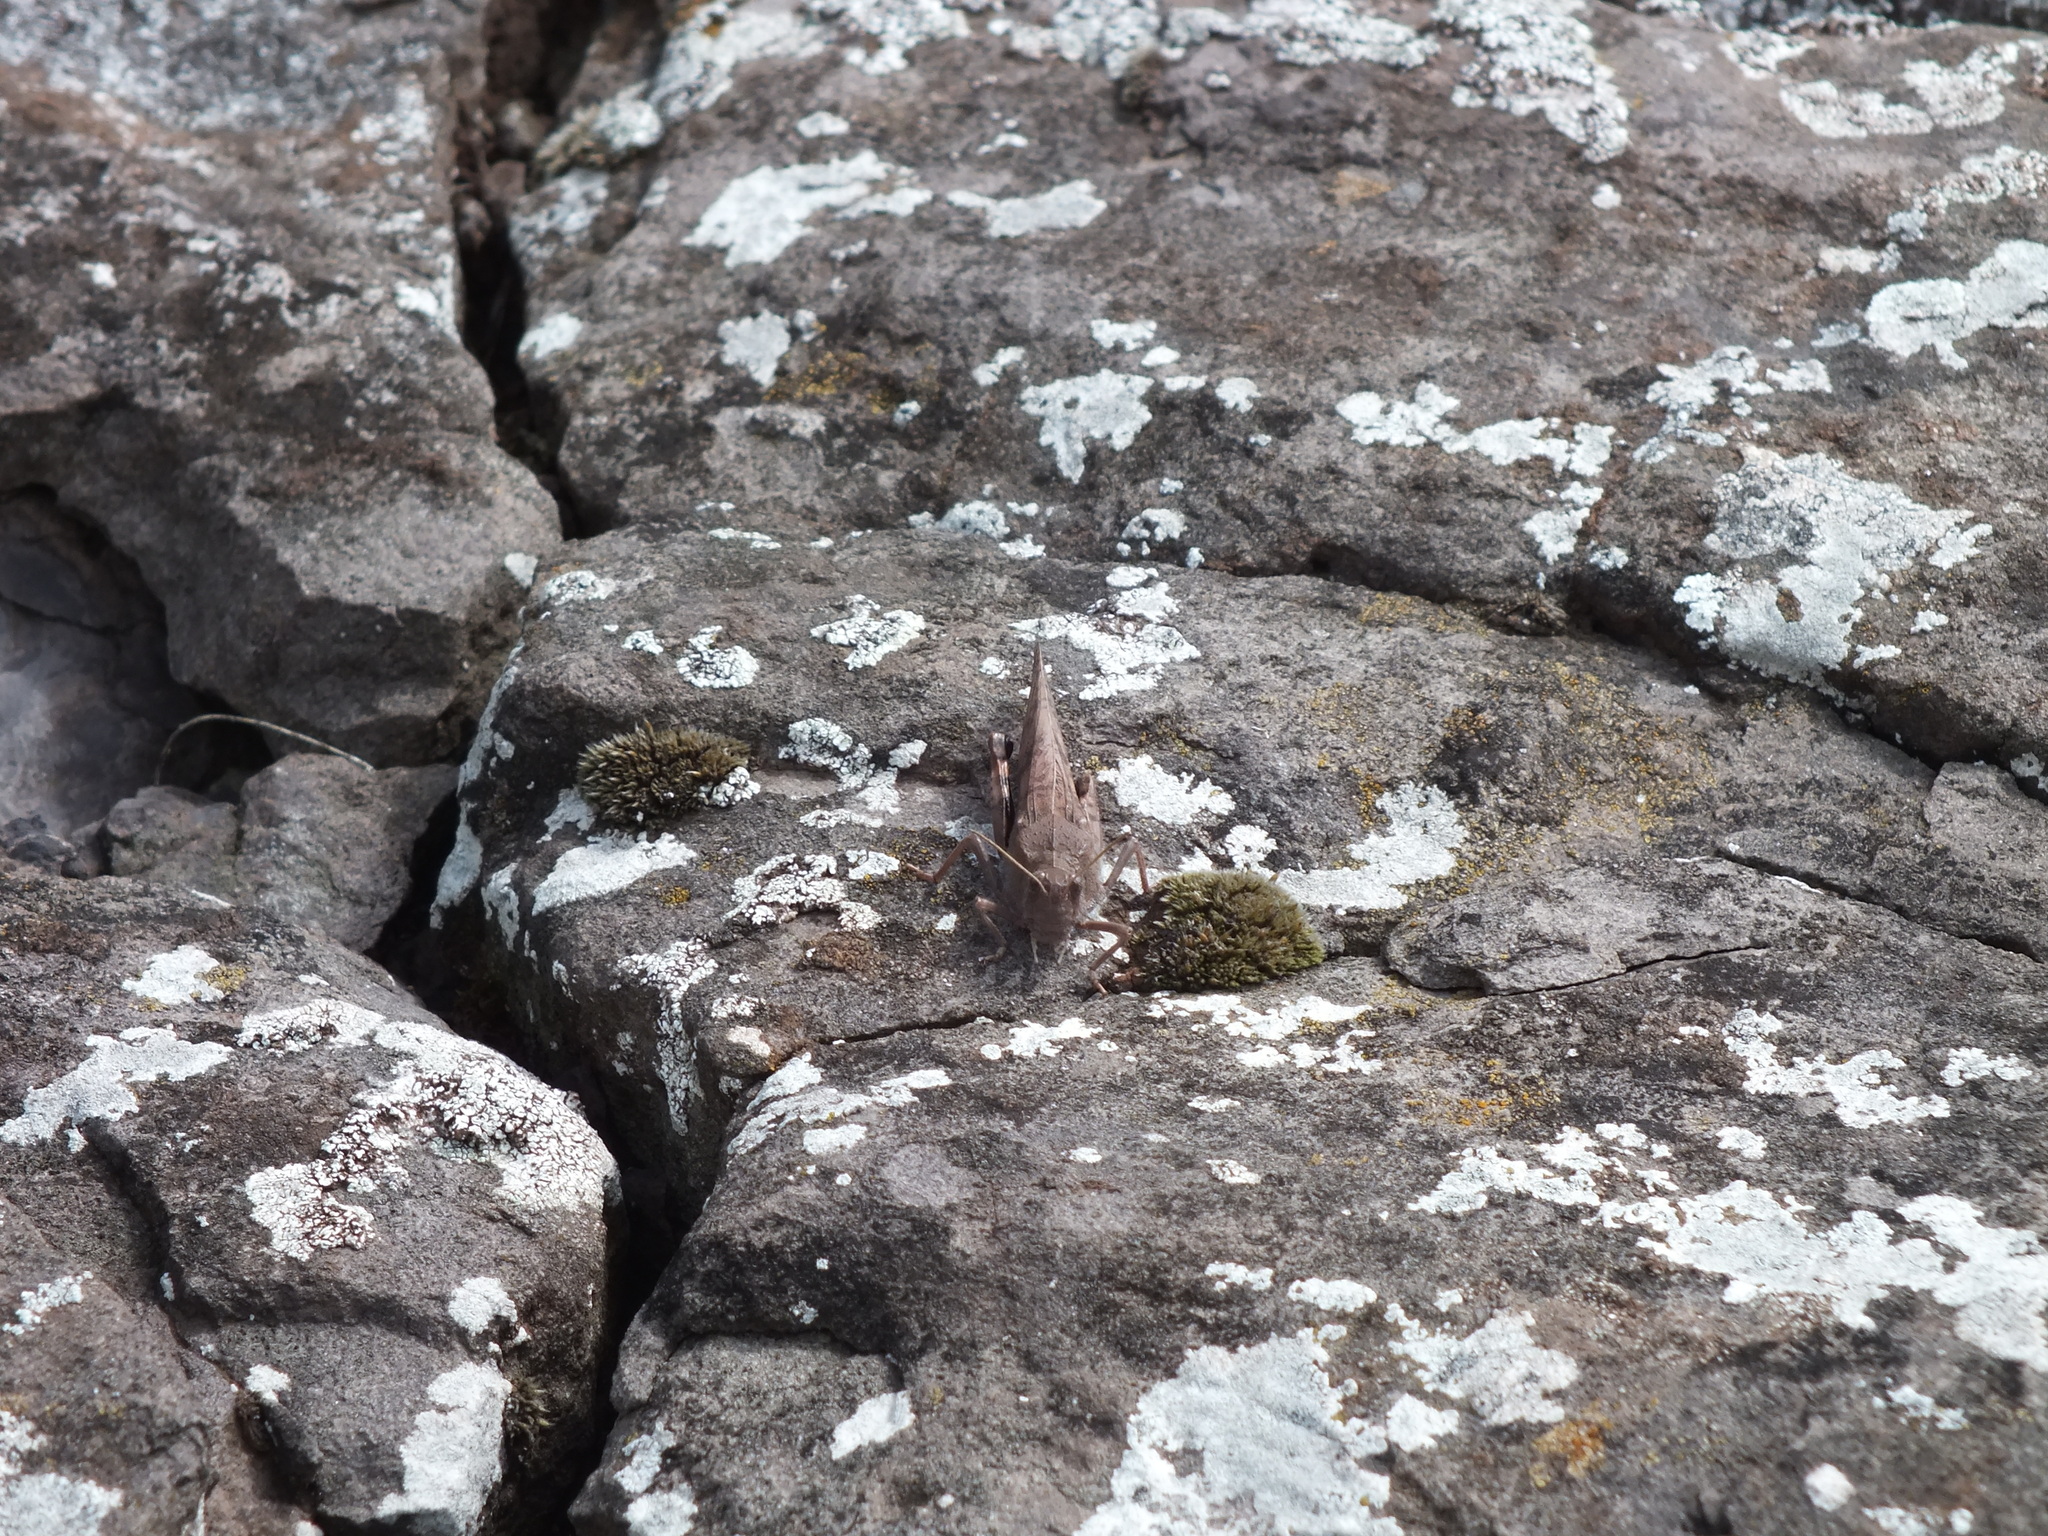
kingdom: Animalia
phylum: Arthropoda
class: Insecta
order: Orthoptera
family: Acrididae
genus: Bryodema
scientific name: Bryodema gebleri
